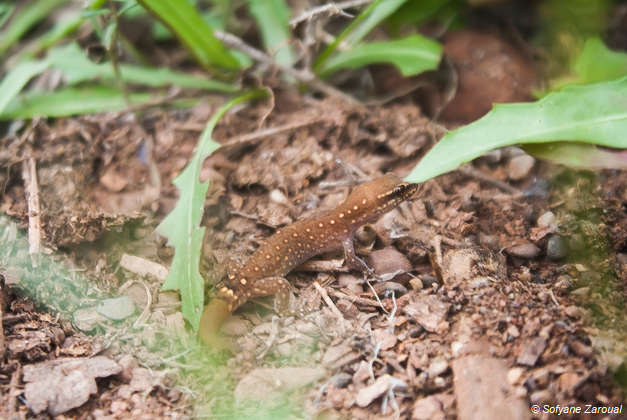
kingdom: Animalia
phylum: Chordata
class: Squamata
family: Sphaerodactylidae
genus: Saurodactylus
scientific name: Saurodactylus brosseti
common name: Morocco lizard-fingered gecko
